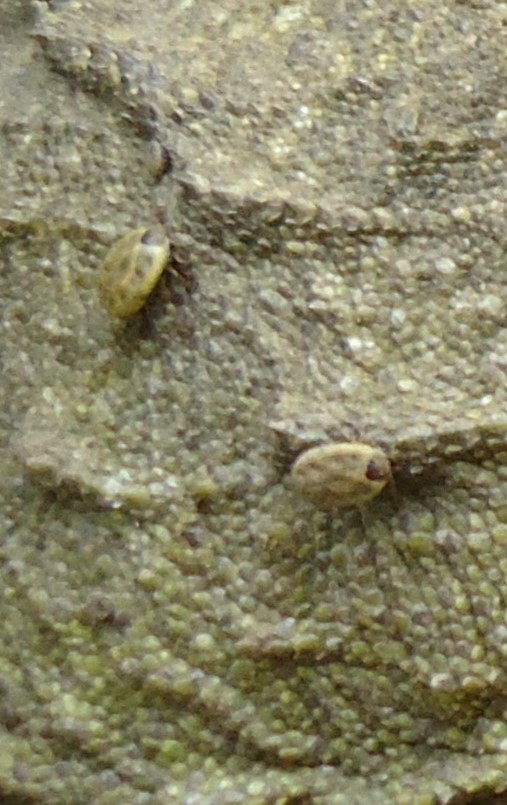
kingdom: Animalia
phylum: Arthropoda
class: Arachnida
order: Ixodida
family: Ixodidae
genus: Archaeocroton
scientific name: Archaeocroton sphenodonti
